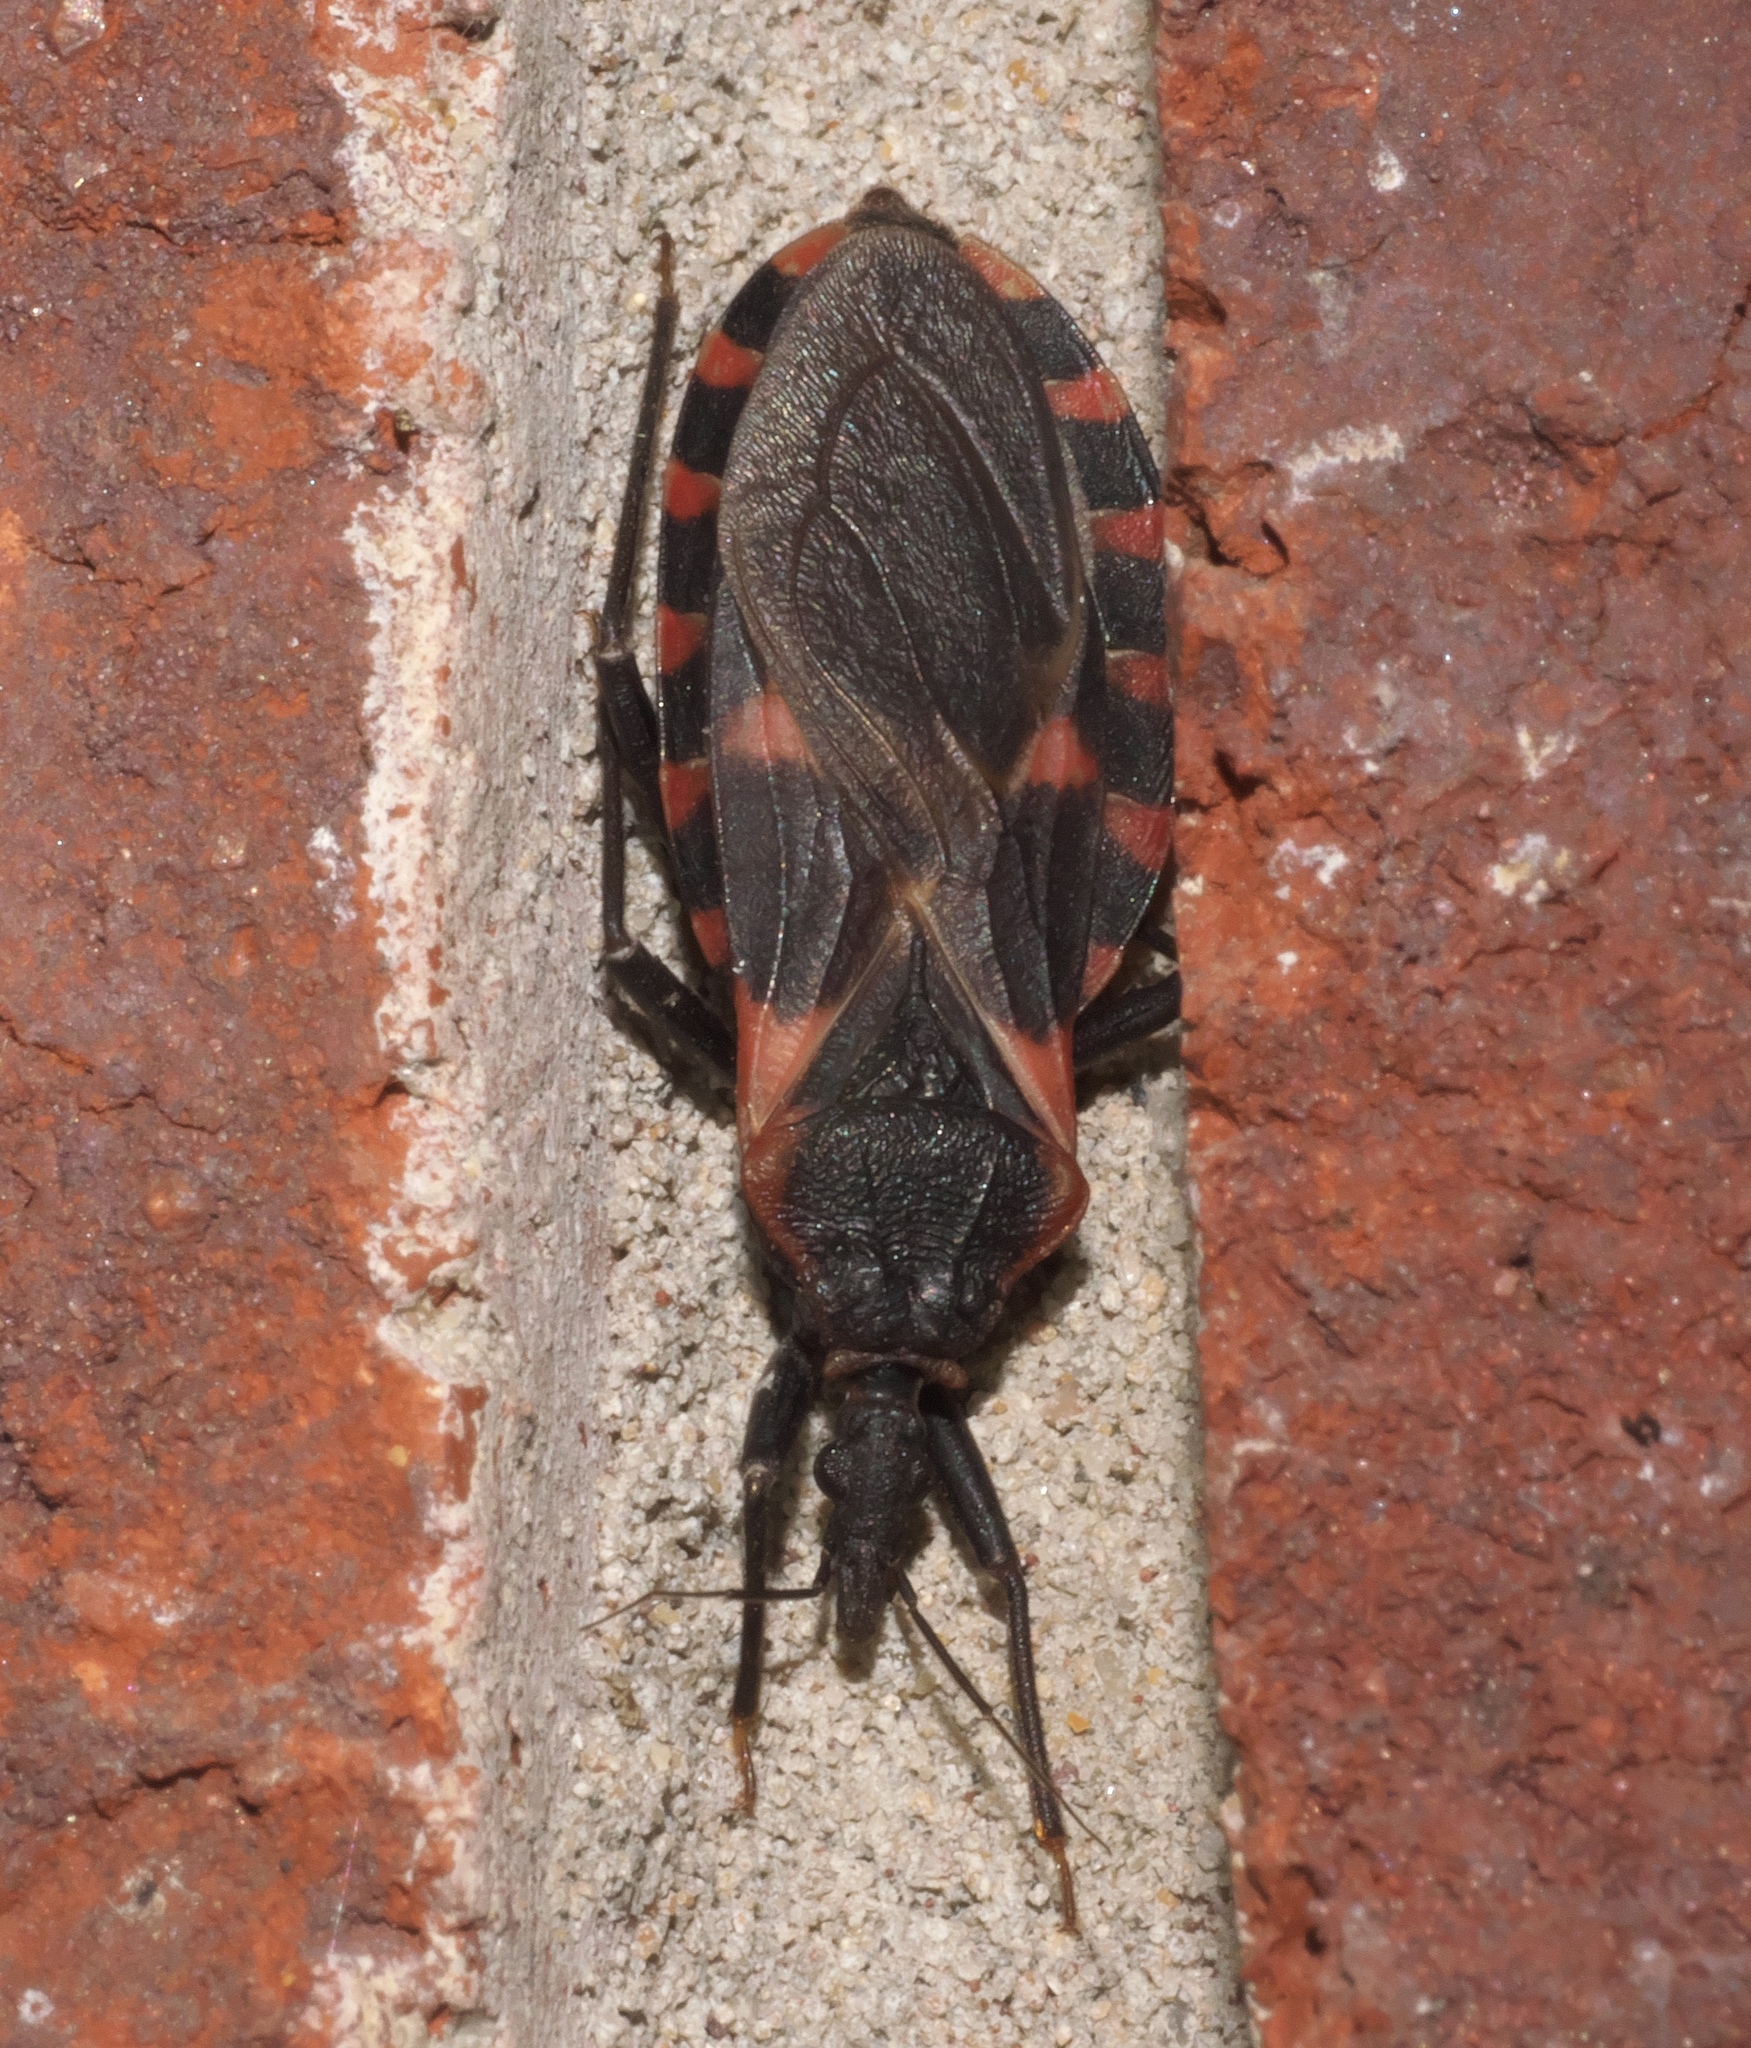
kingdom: Animalia
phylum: Arthropoda
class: Insecta
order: Hemiptera
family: Reduviidae
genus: Triatoma
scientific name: Triatoma sanguisuga
